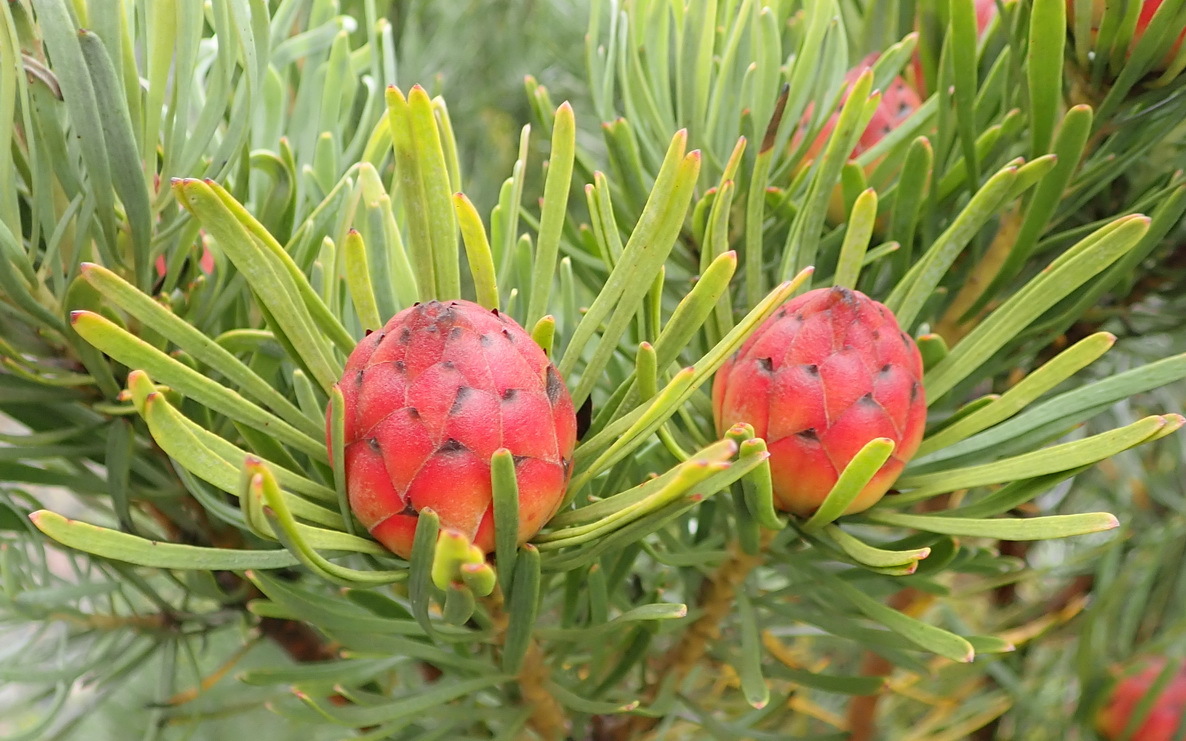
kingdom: Plantae
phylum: Tracheophyta
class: Magnoliopsida
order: Proteales
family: Proteaceae
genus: Leucadendron
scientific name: Leucadendron album
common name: Linear-leaf conebush
